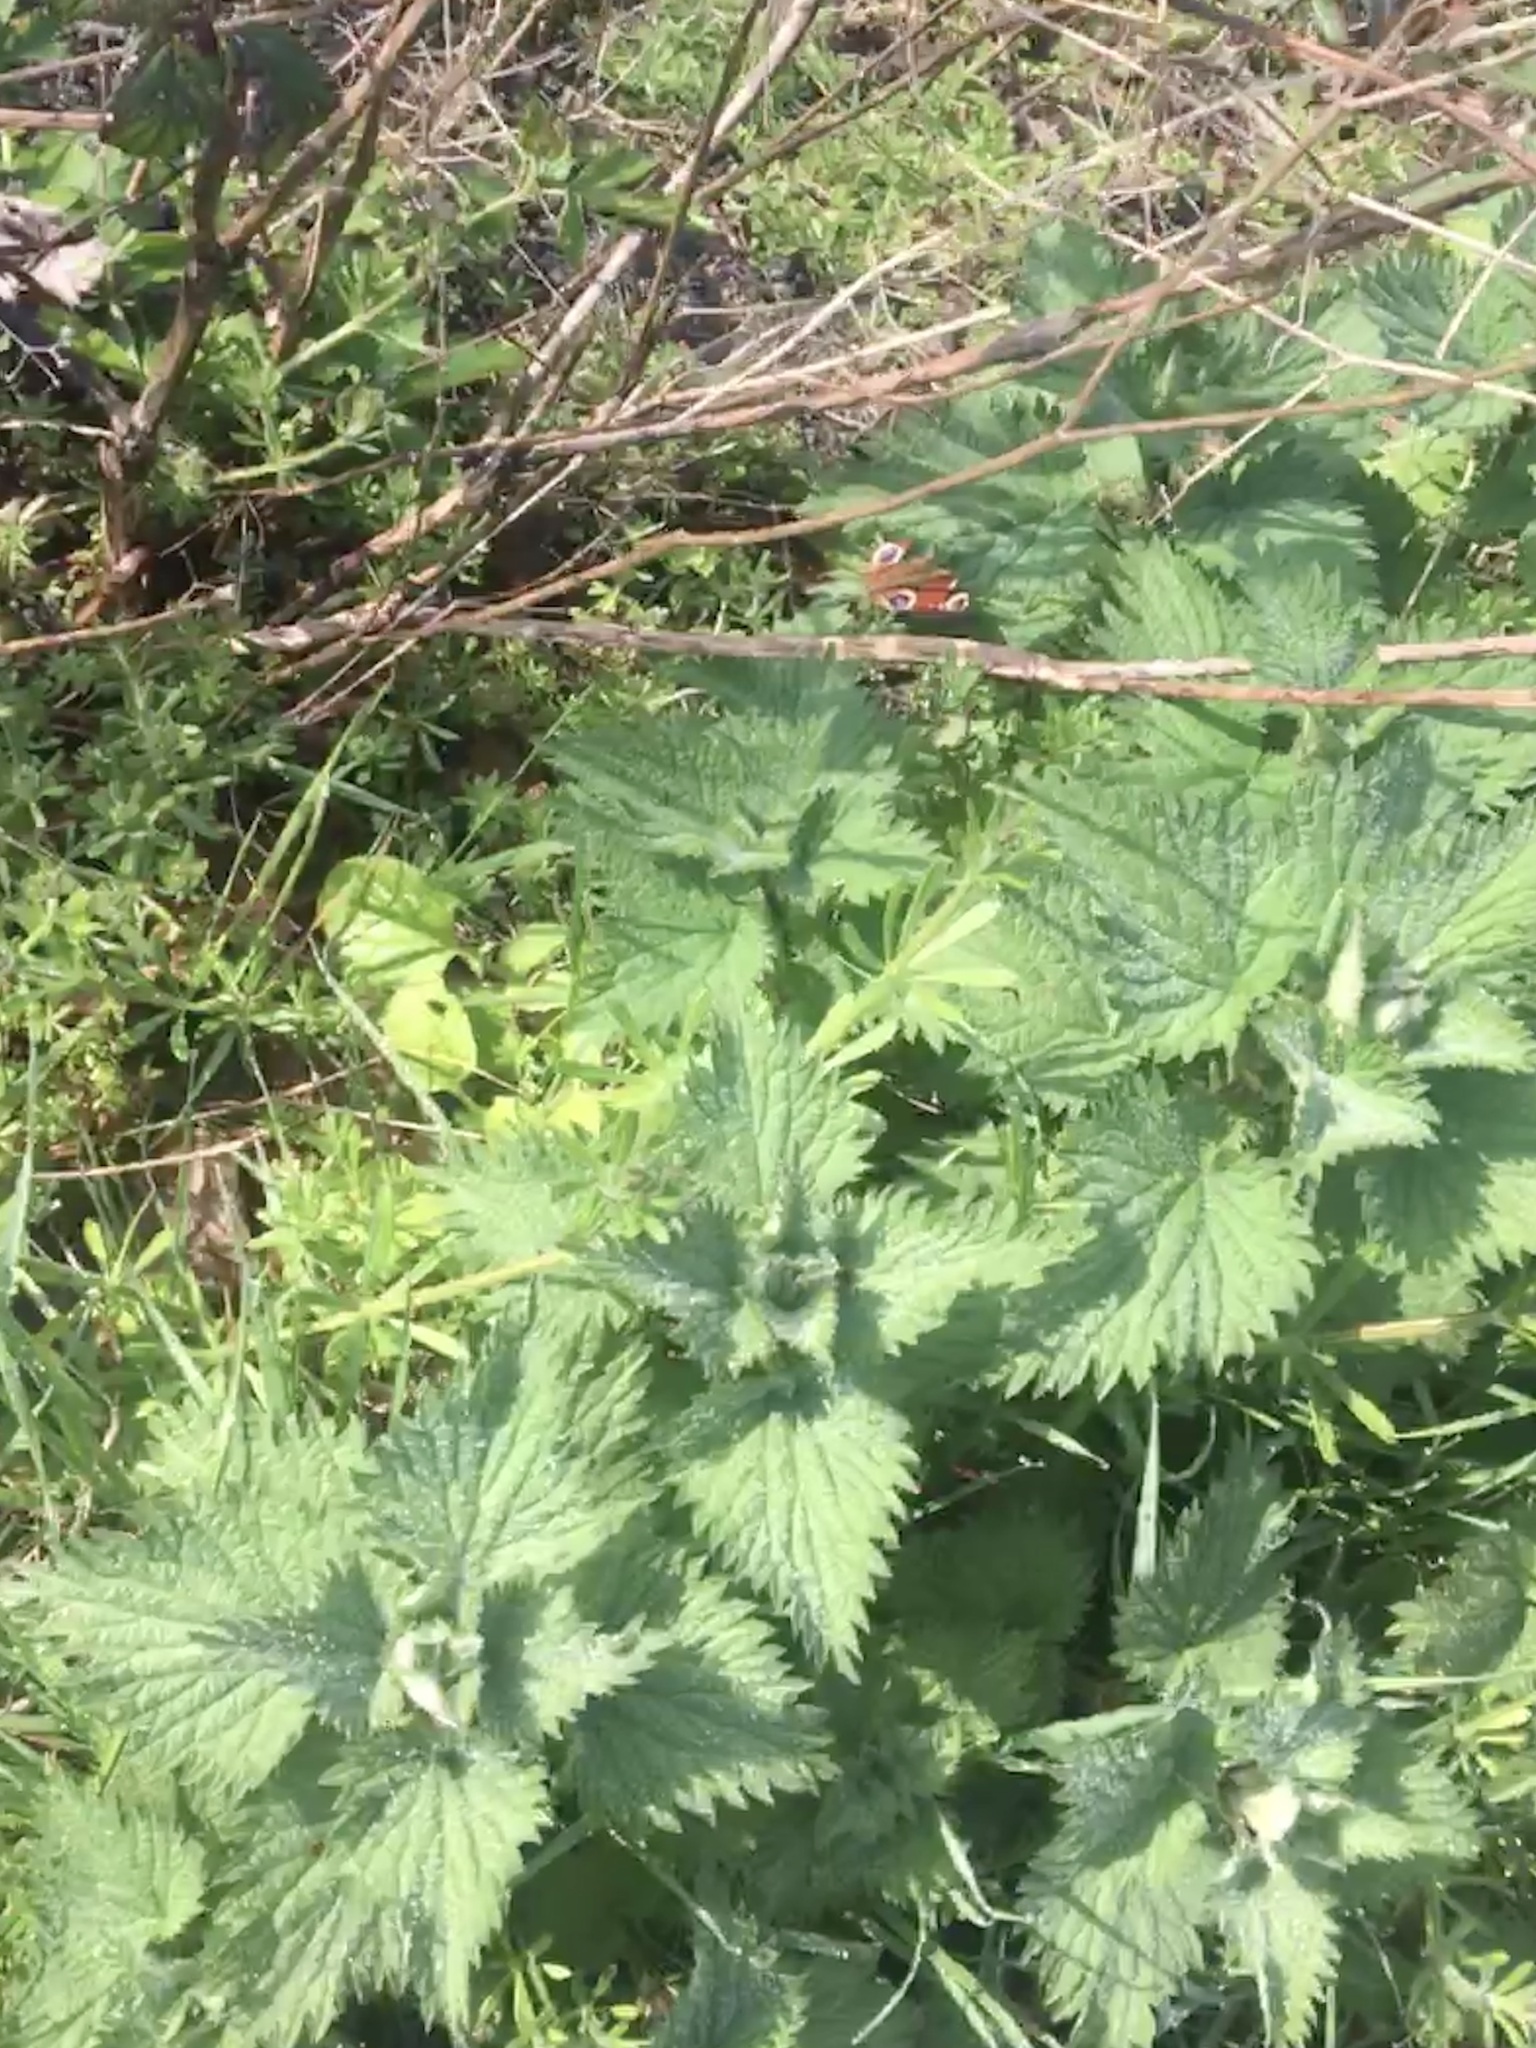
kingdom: Animalia
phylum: Arthropoda
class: Insecta
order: Lepidoptera
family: Nymphalidae
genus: Aglais
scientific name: Aglais io
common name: Peacock
